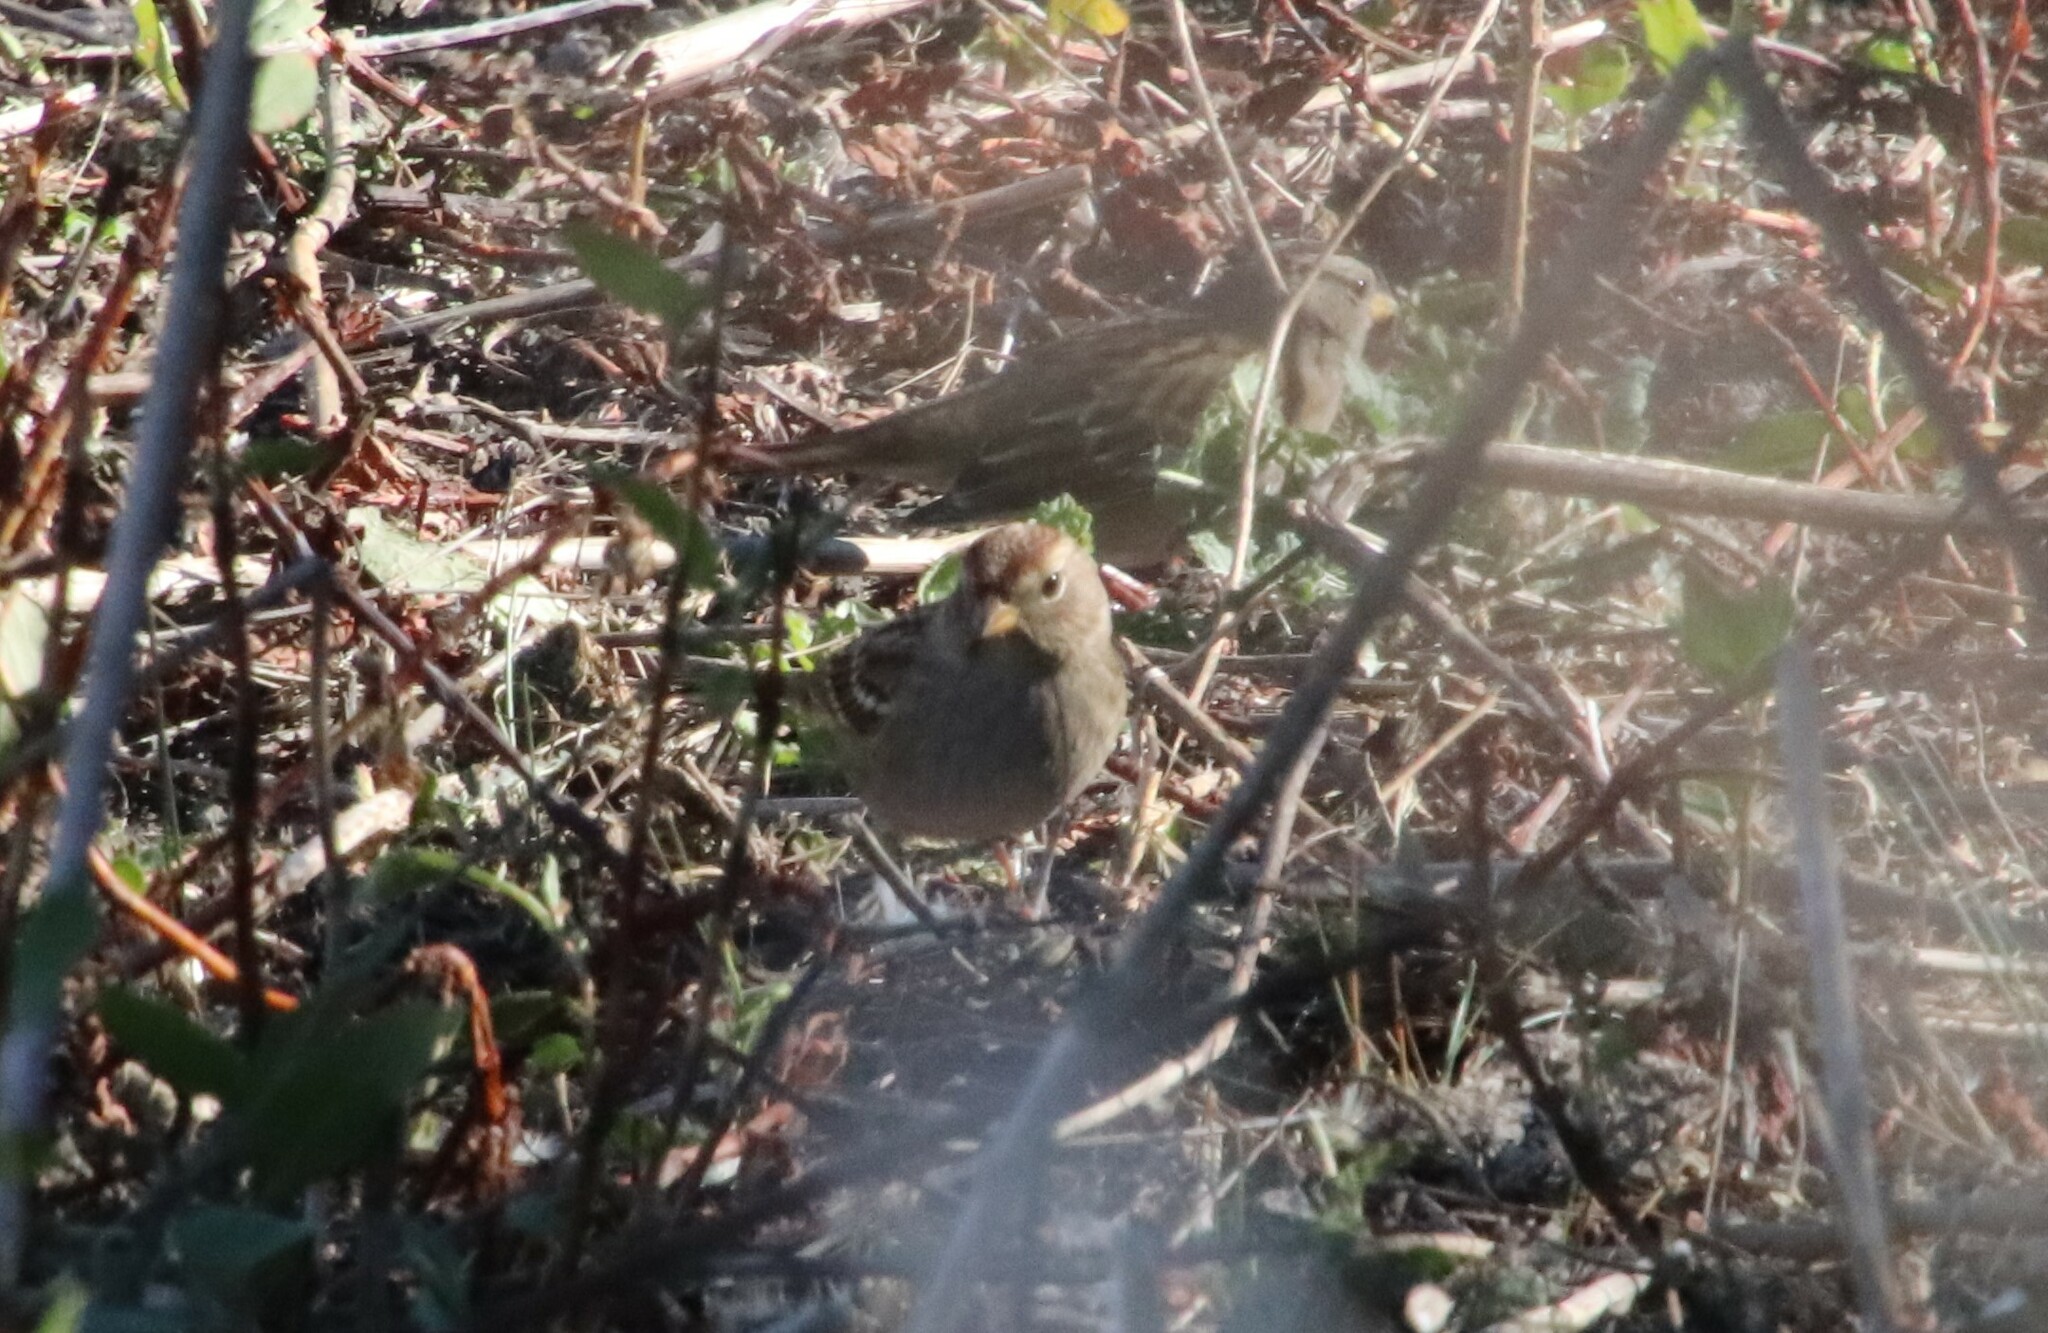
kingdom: Animalia
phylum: Chordata
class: Aves
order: Passeriformes
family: Passerellidae
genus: Zonotrichia
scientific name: Zonotrichia leucophrys
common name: White-crowned sparrow
